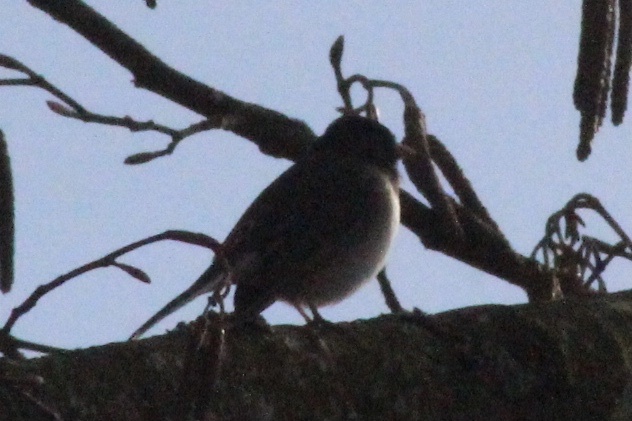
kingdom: Animalia
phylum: Chordata
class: Aves
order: Passeriformes
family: Passerellidae
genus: Junco
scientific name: Junco hyemalis
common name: Dark-eyed junco
